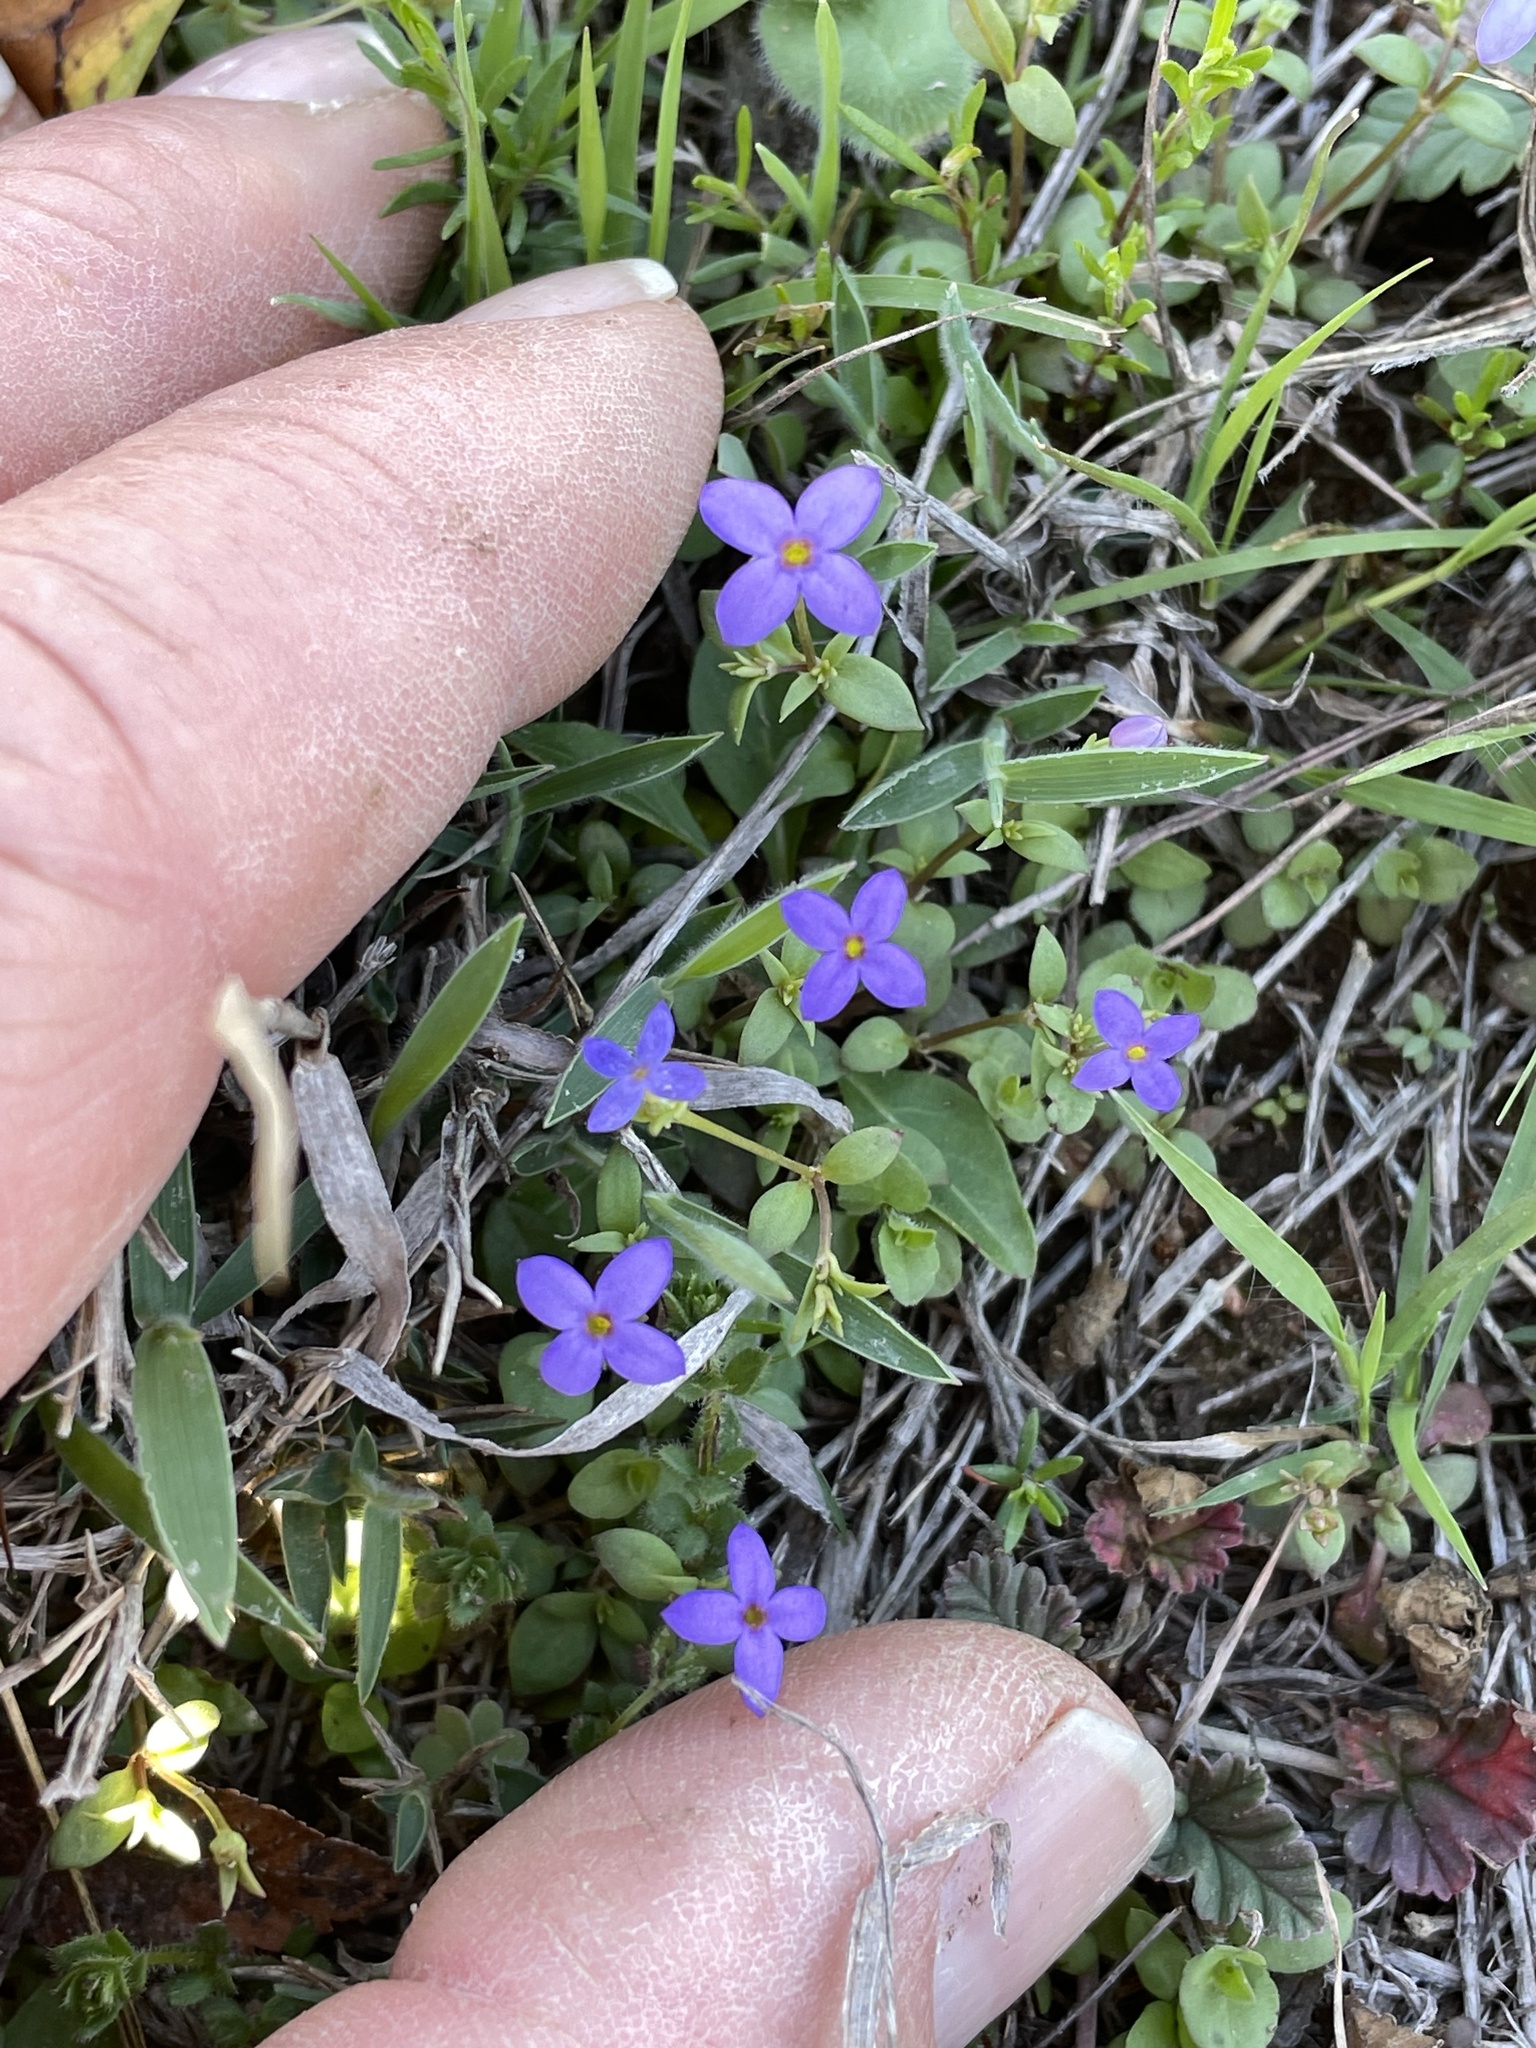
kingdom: Plantae
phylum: Tracheophyta
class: Magnoliopsida
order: Gentianales
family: Rubiaceae
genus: Houstonia
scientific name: Houstonia pusilla
